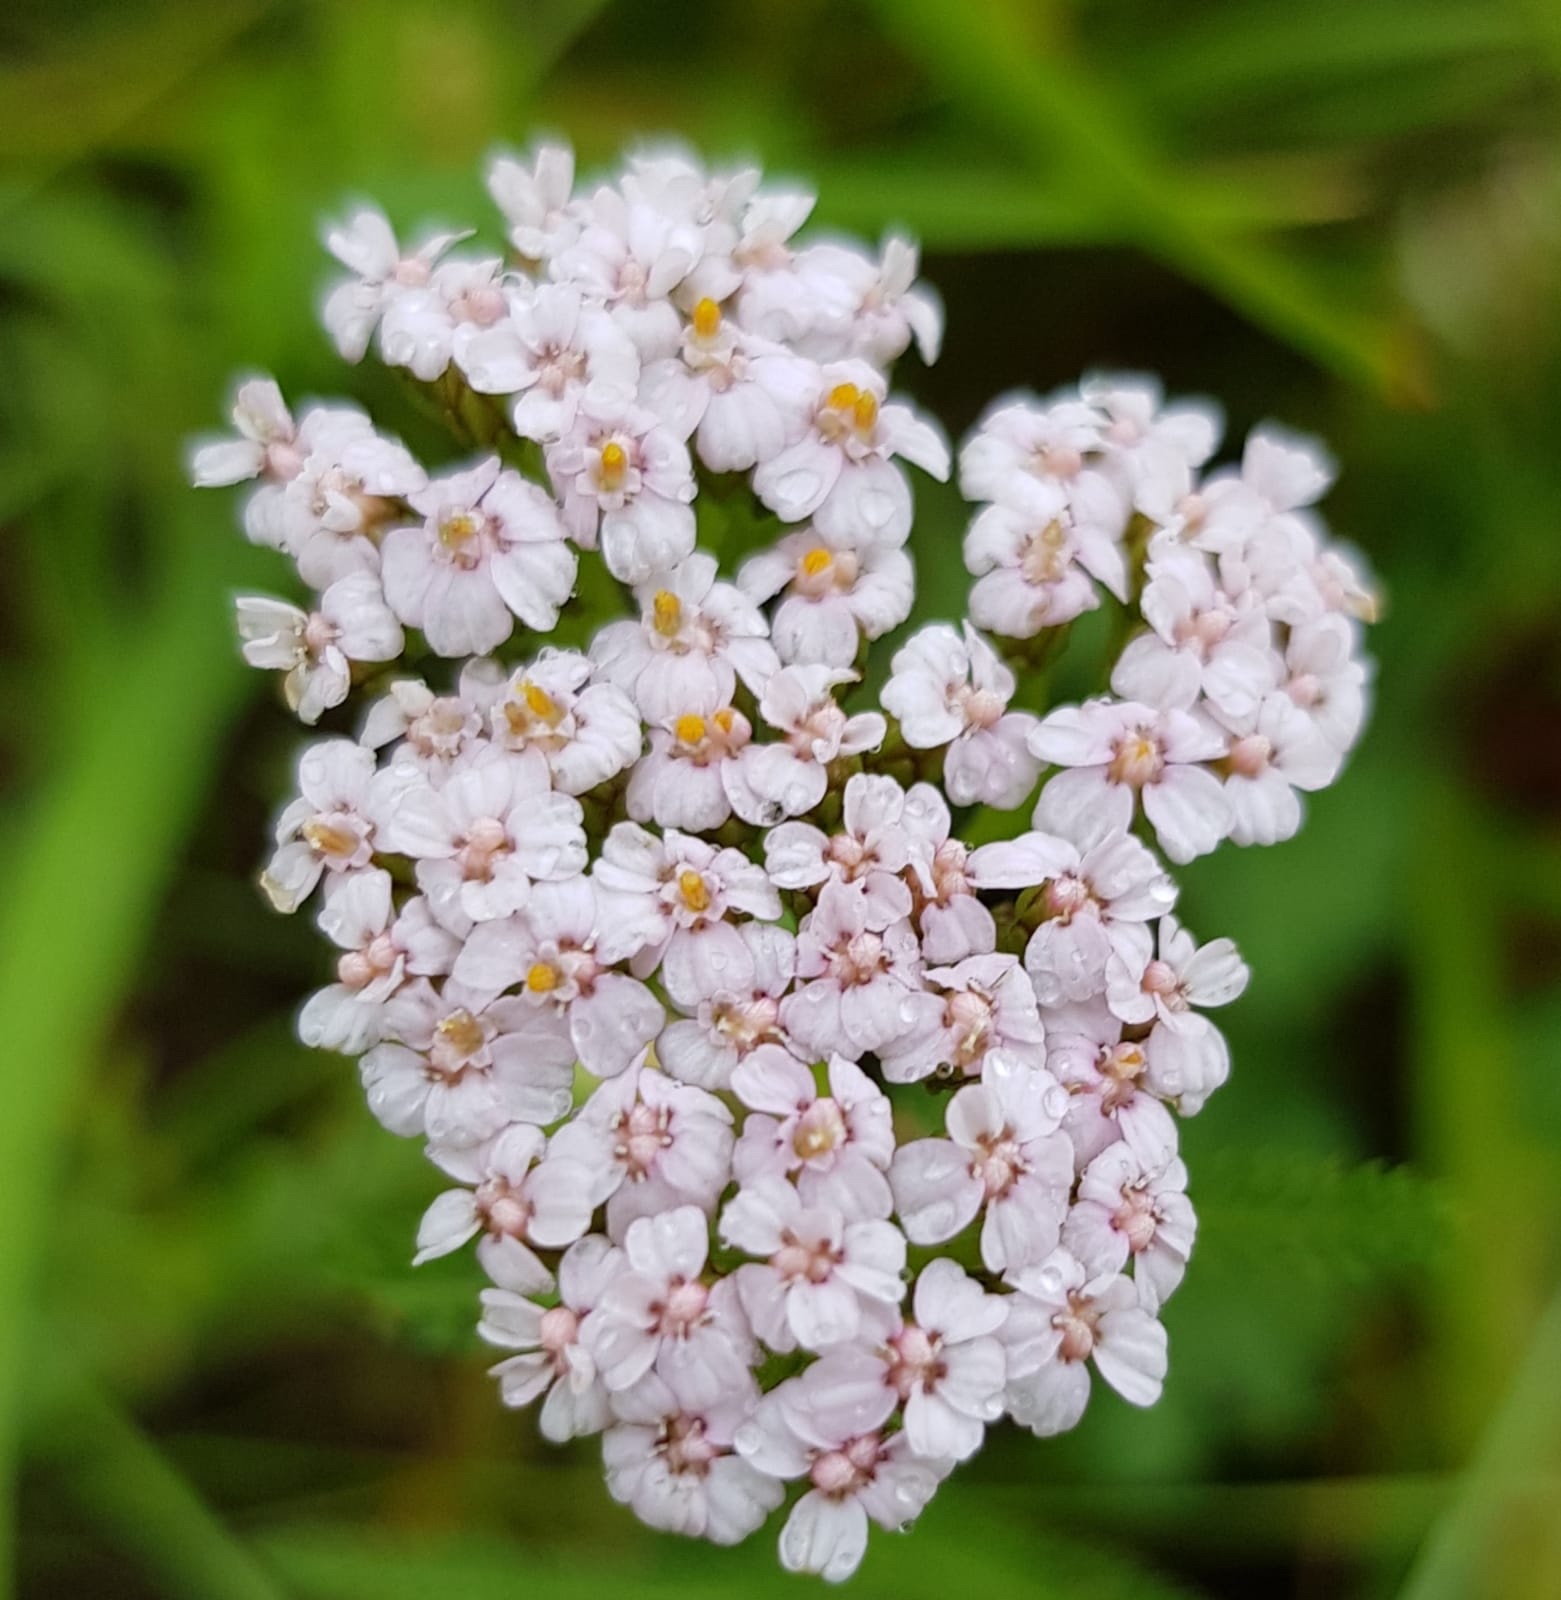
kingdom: Plantae
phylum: Tracheophyta
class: Magnoliopsida
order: Asterales
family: Asteraceae
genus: Achillea
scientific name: Achillea millefolium
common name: Yarrow
